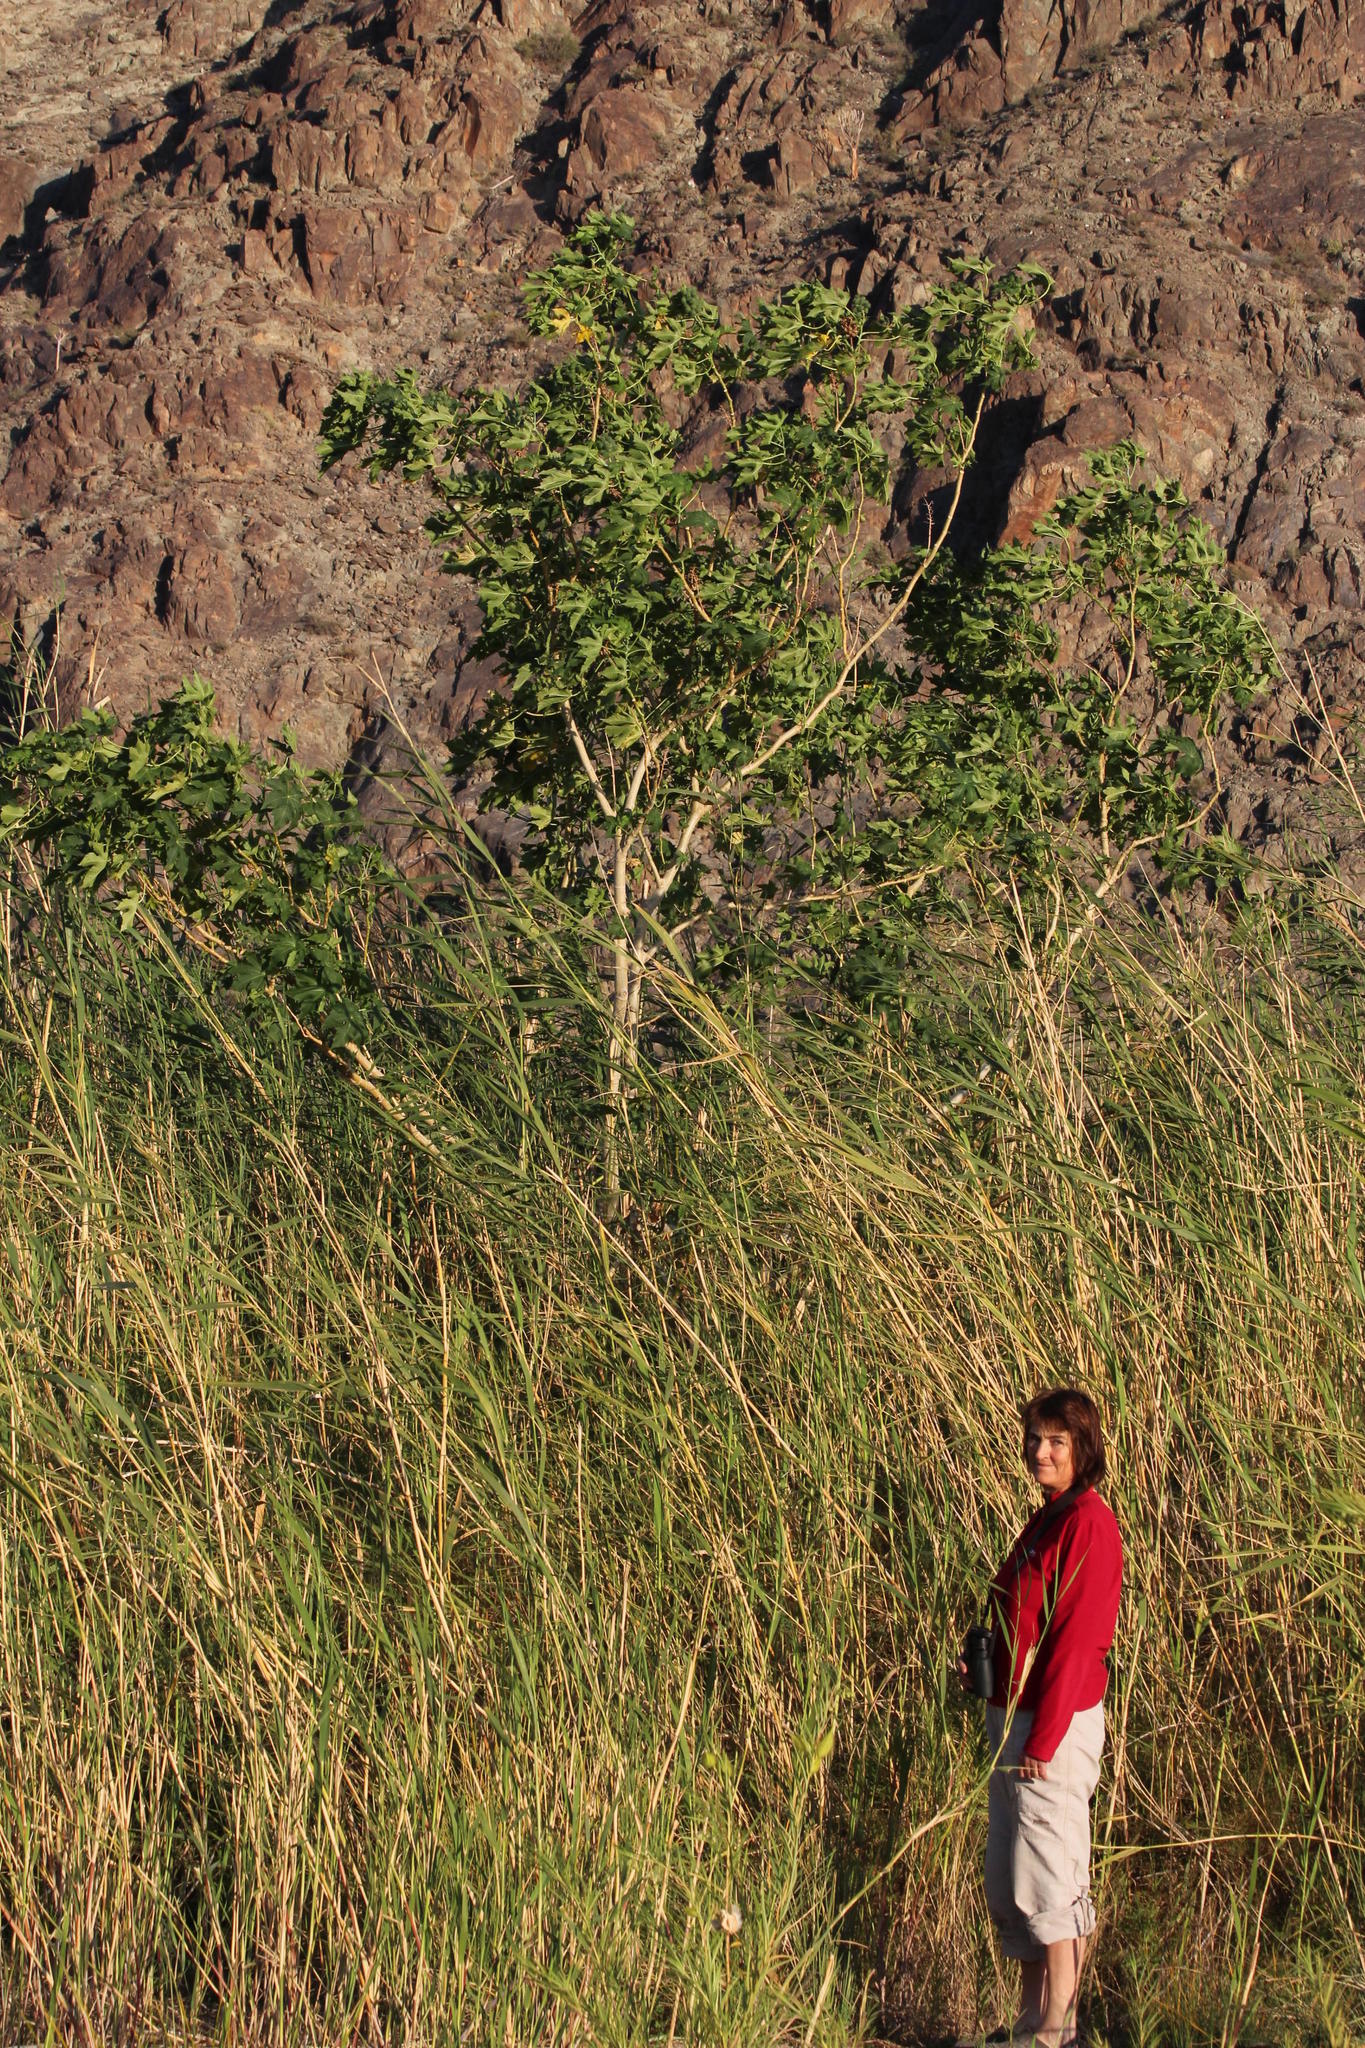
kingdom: Plantae
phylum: Tracheophyta
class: Magnoliopsida
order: Malpighiales
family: Euphorbiaceae
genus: Ricinus
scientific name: Ricinus communis
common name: Castor-oil-plant
